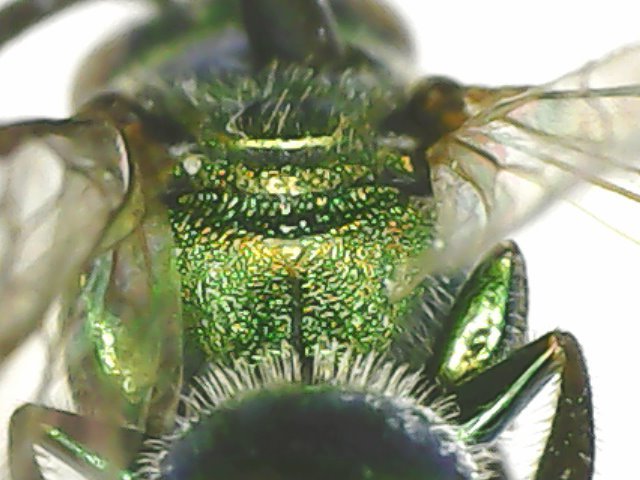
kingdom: Animalia
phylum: Arthropoda
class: Insecta
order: Hymenoptera
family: Halictidae
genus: Augochlora
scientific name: Augochlora pura
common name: Pure green sweat bee
